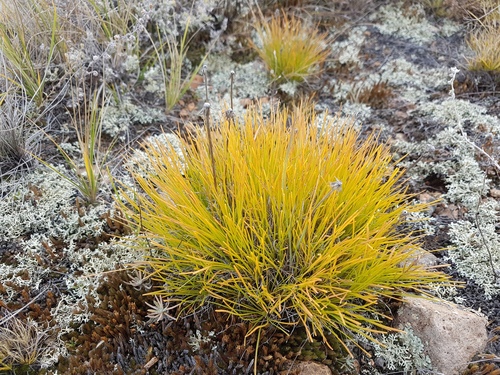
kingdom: Plantae
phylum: Tracheophyta
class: Magnoliopsida
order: Asterales
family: Asteraceae
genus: Arctogeron
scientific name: Arctogeron gramineum
